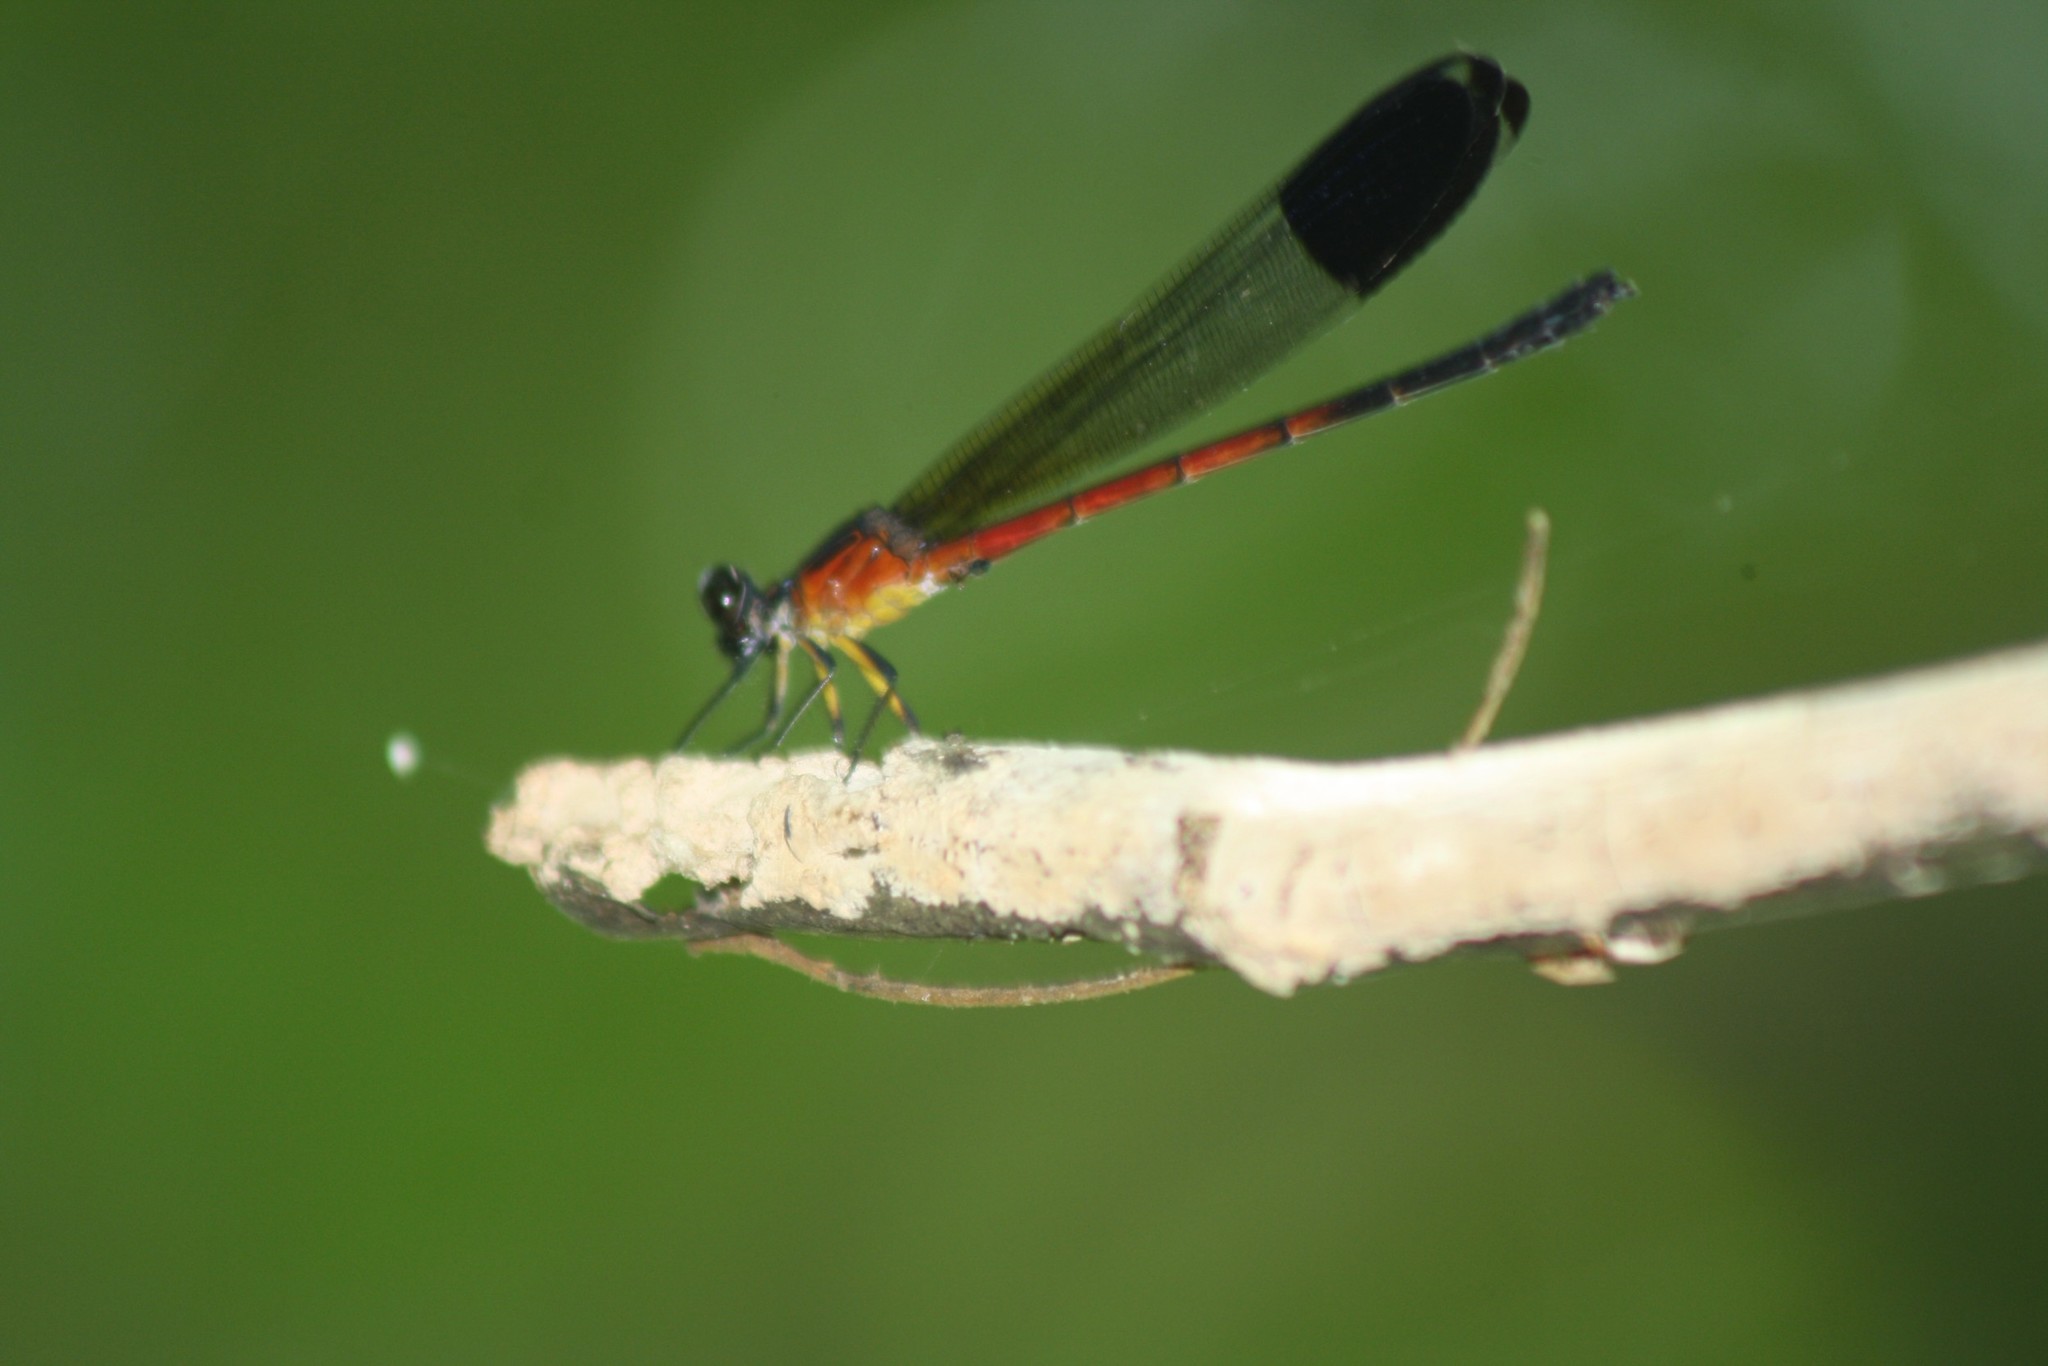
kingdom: Animalia
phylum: Arthropoda
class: Insecta
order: Odonata
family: Euphaeidae
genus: Euphaea
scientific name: Euphaea dispar
